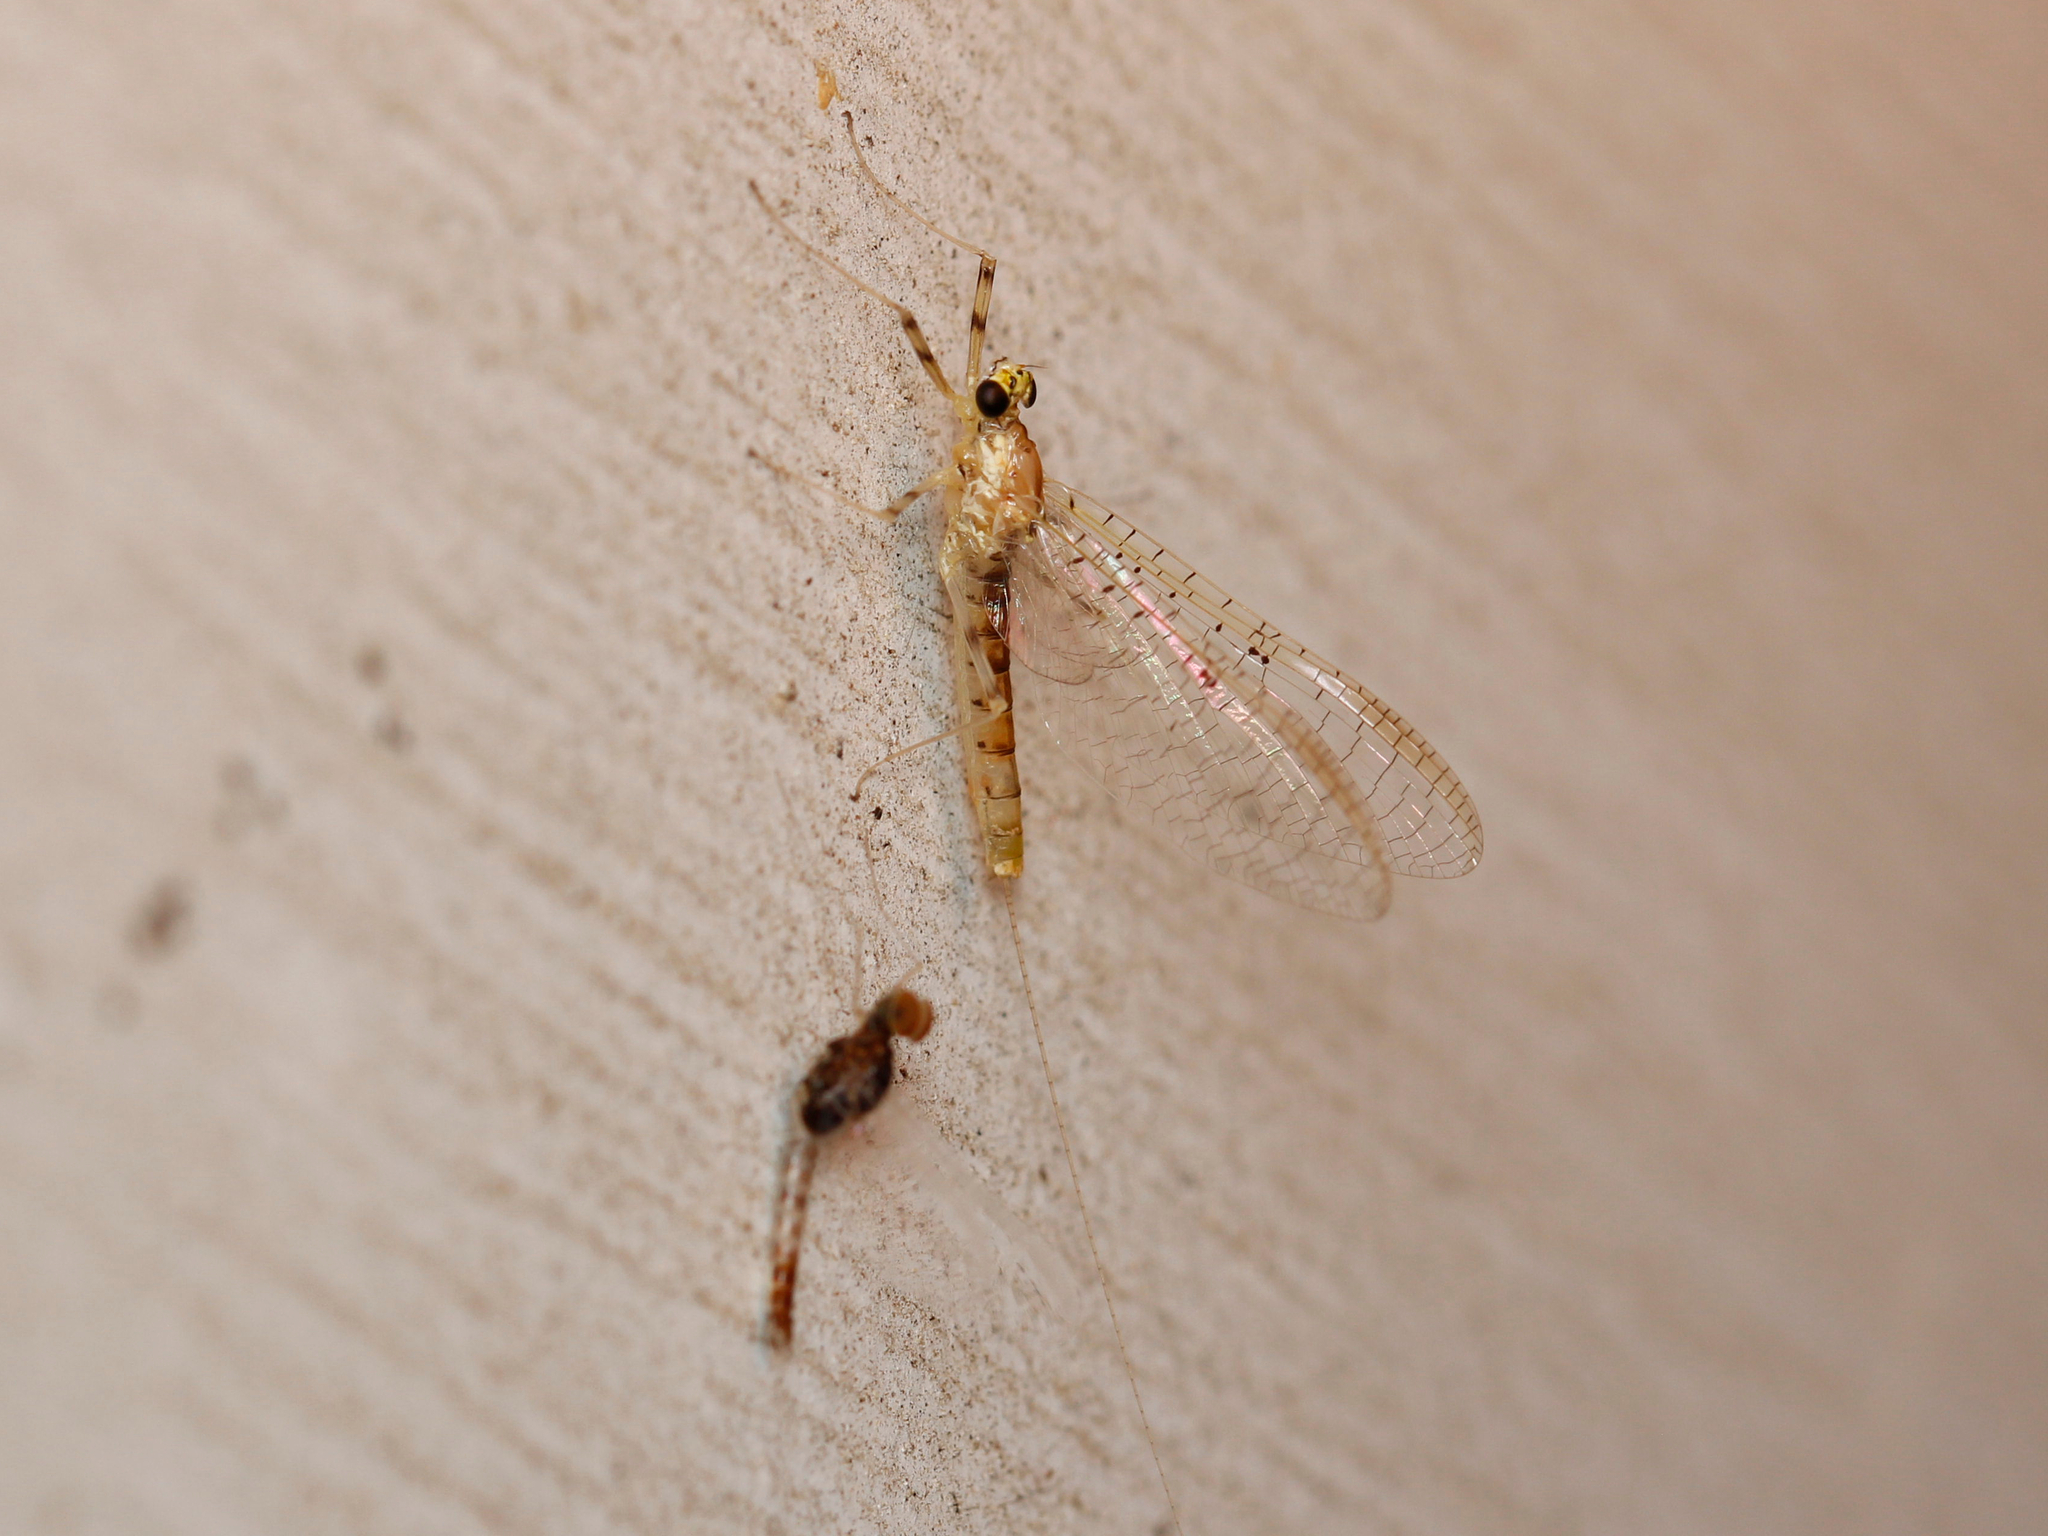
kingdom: Animalia
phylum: Arthropoda
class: Insecta
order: Ephemeroptera
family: Heptageniidae
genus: Stenacron
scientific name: Stenacron interpunctatum
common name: Orange cahill
